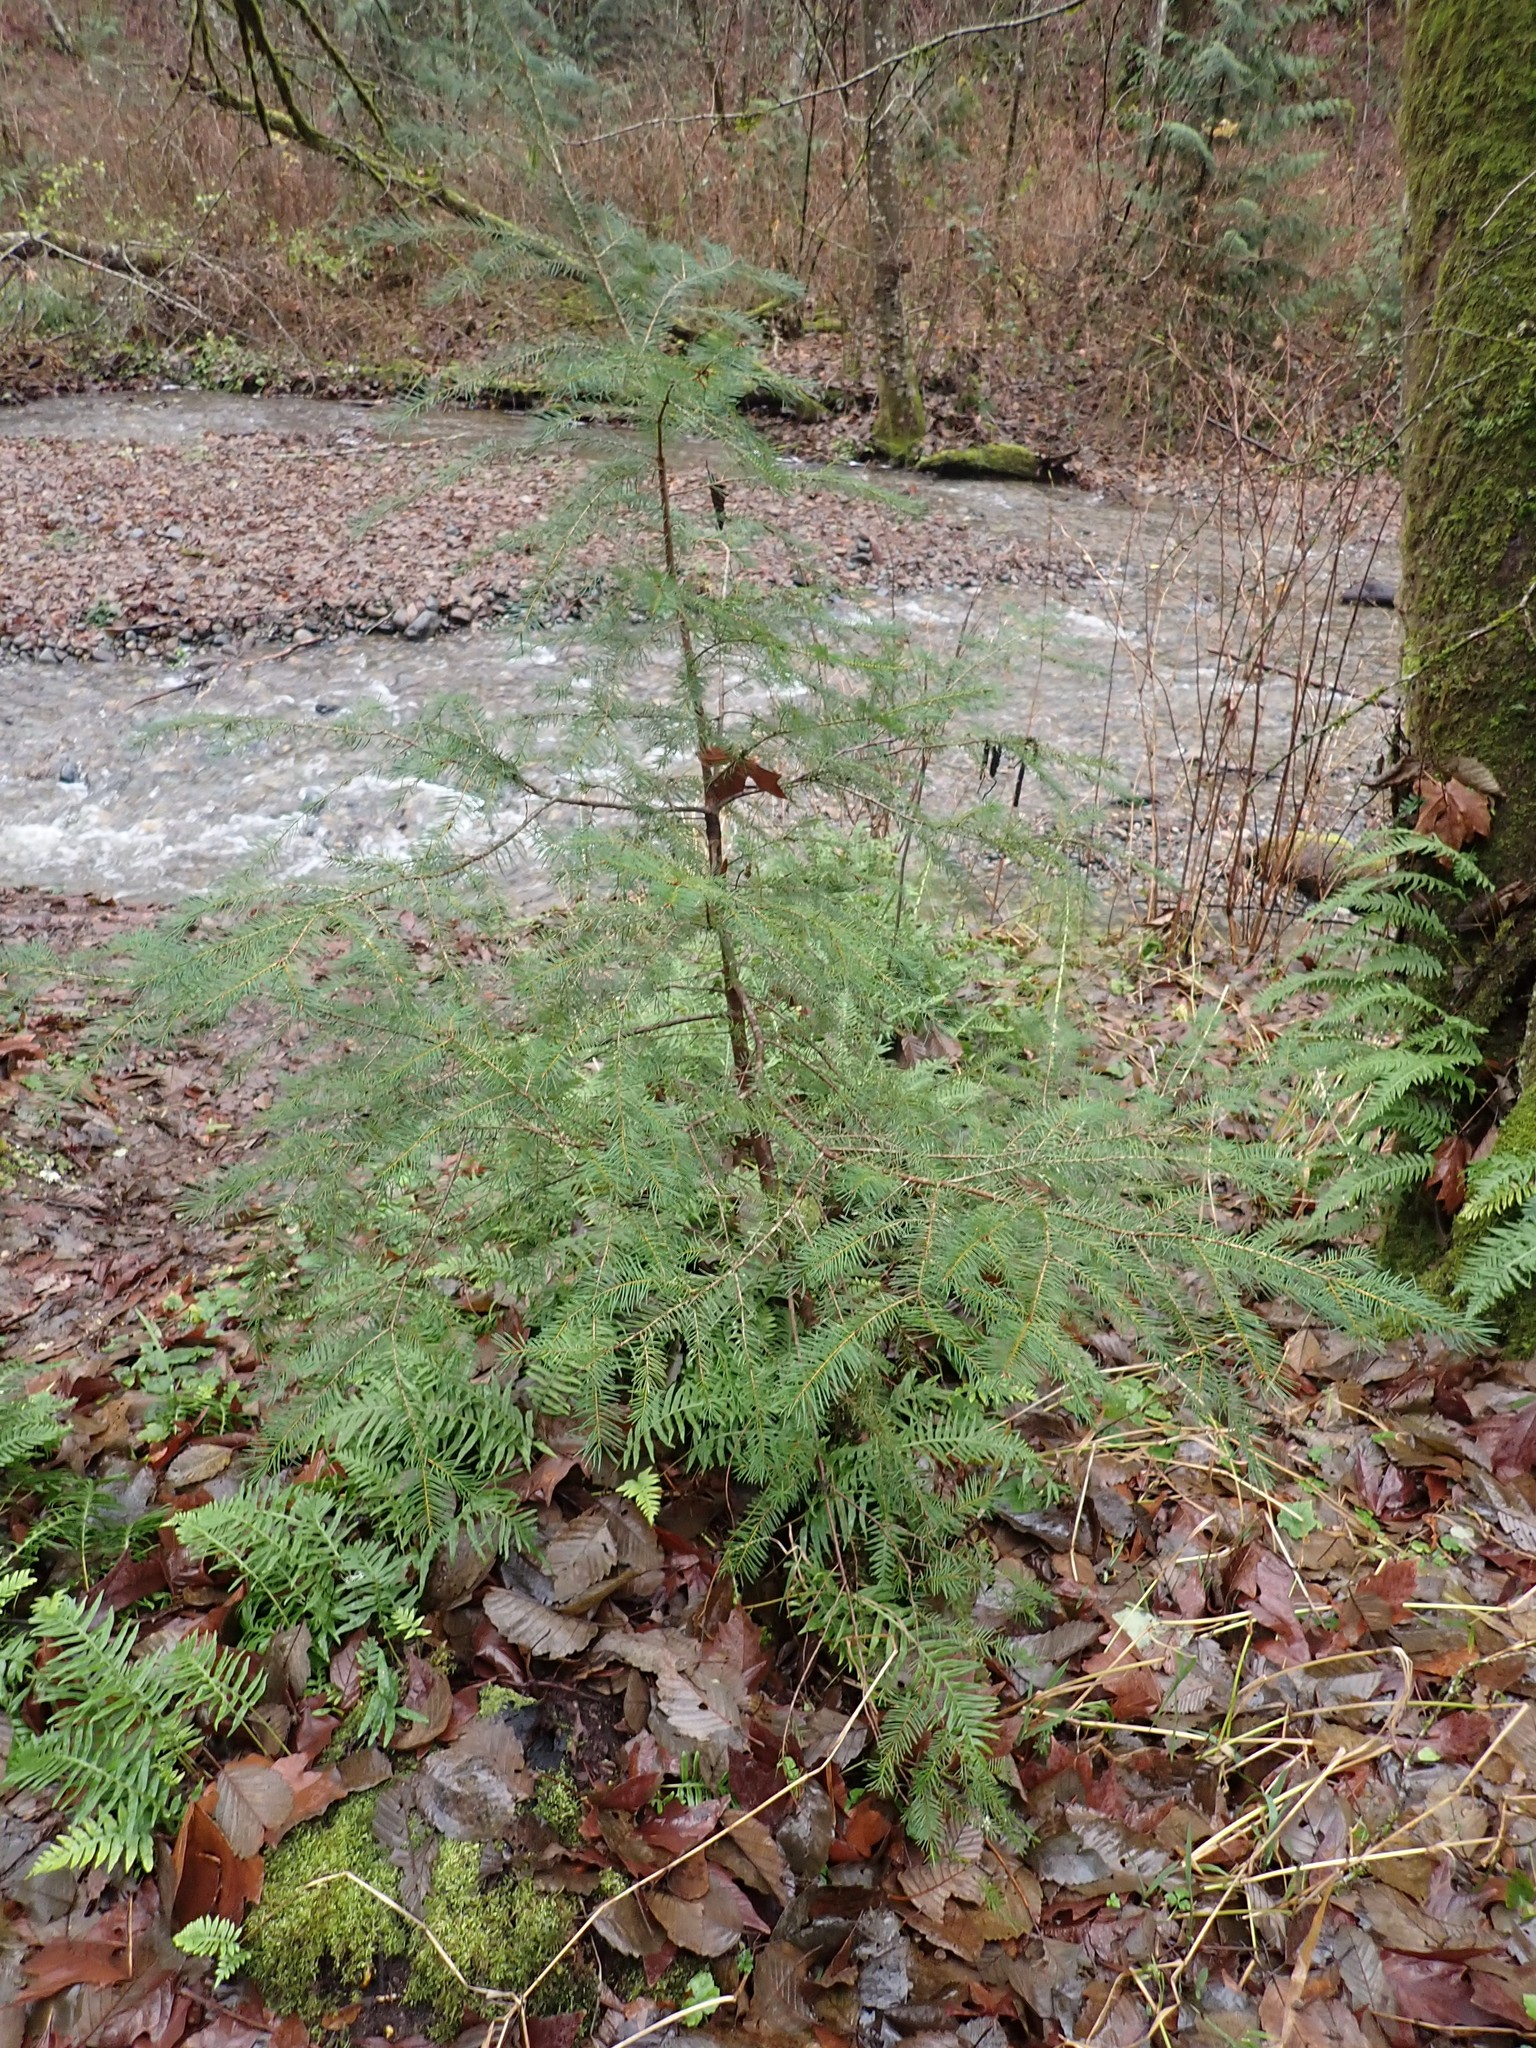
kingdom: Plantae
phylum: Tracheophyta
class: Pinopsida
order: Pinales
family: Pinaceae
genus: Pseudotsuga
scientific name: Pseudotsuga menziesii
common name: Douglas fir
